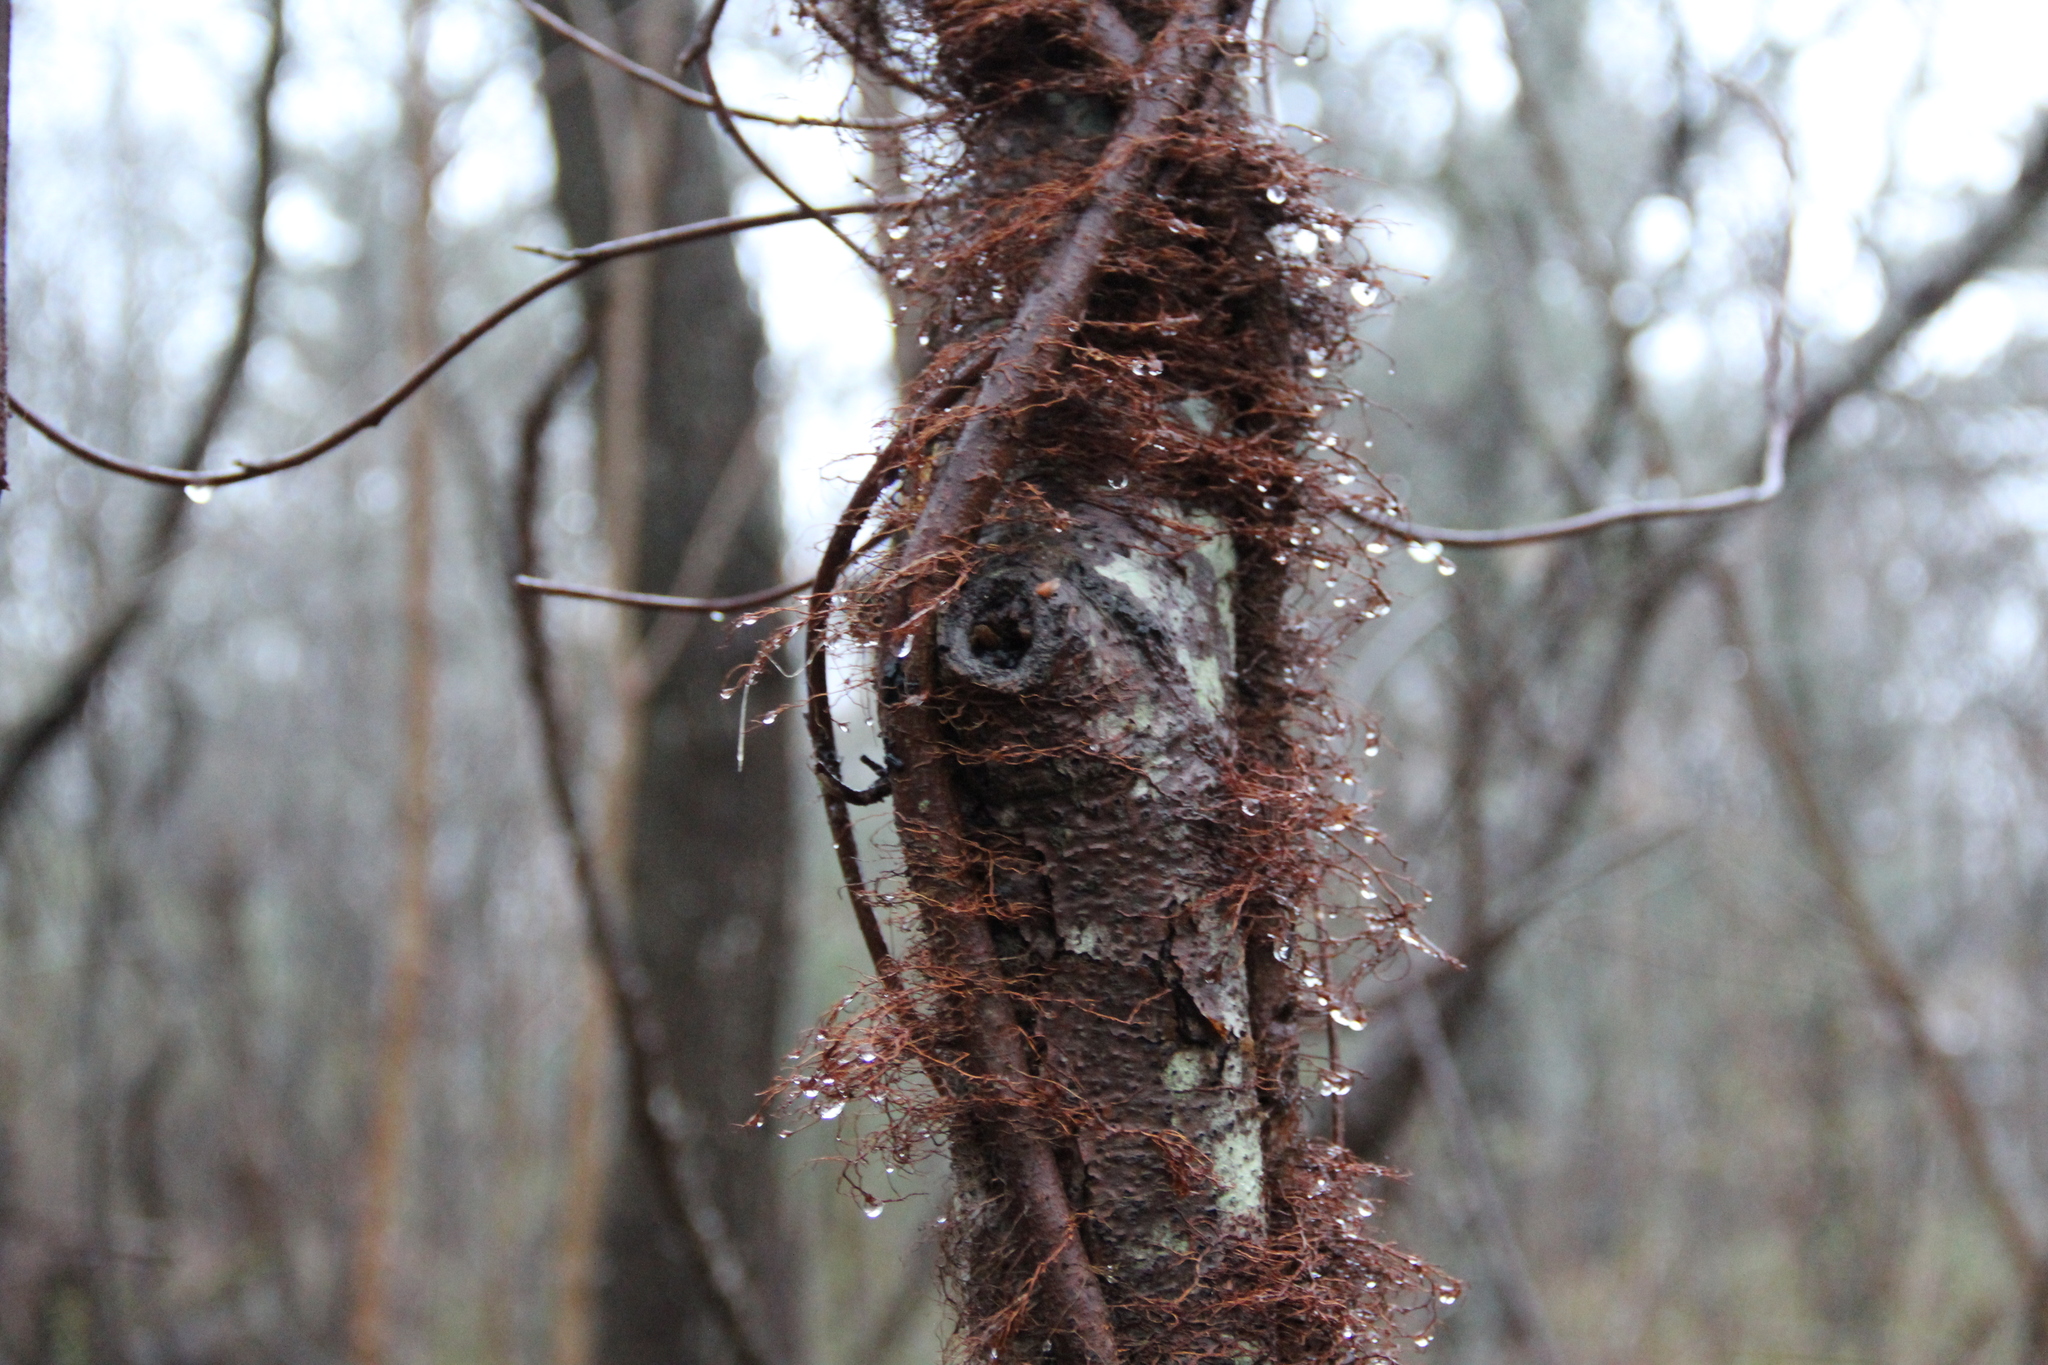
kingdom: Plantae
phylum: Tracheophyta
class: Magnoliopsida
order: Sapindales
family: Anacardiaceae
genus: Toxicodendron
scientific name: Toxicodendron radicans
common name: Poison ivy
